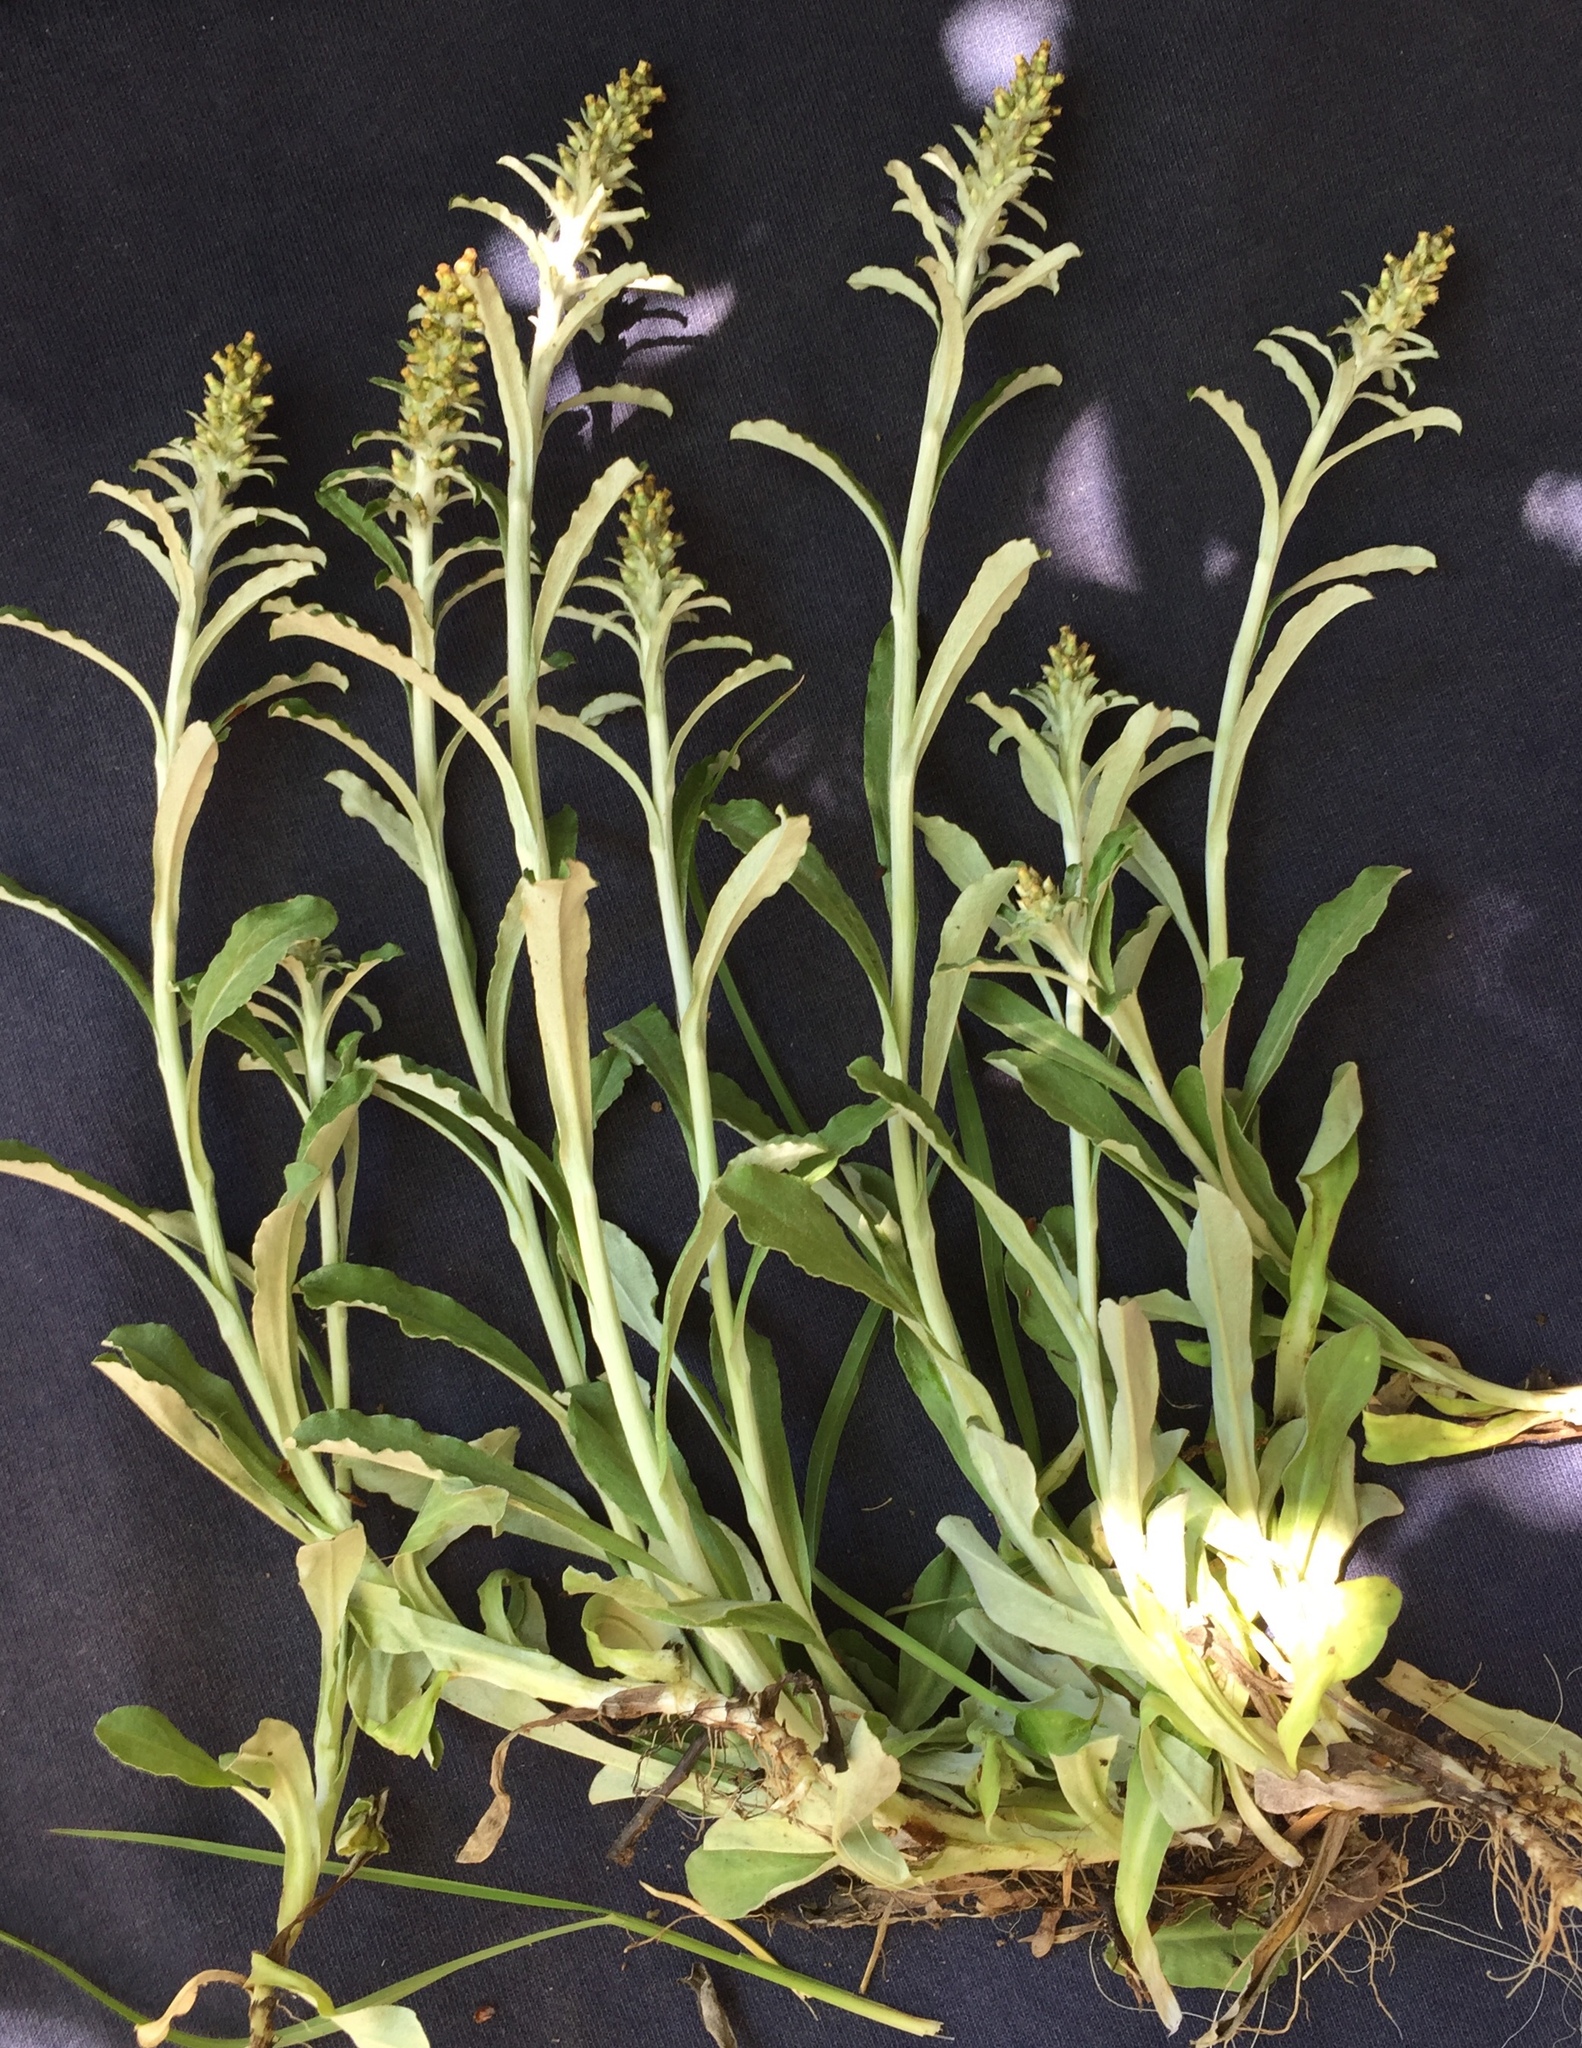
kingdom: Plantae
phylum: Tracheophyta
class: Magnoliopsida
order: Asterales
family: Asteraceae
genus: Gamochaeta
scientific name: Gamochaeta pensylvanica
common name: Pennsylvania everlasting
